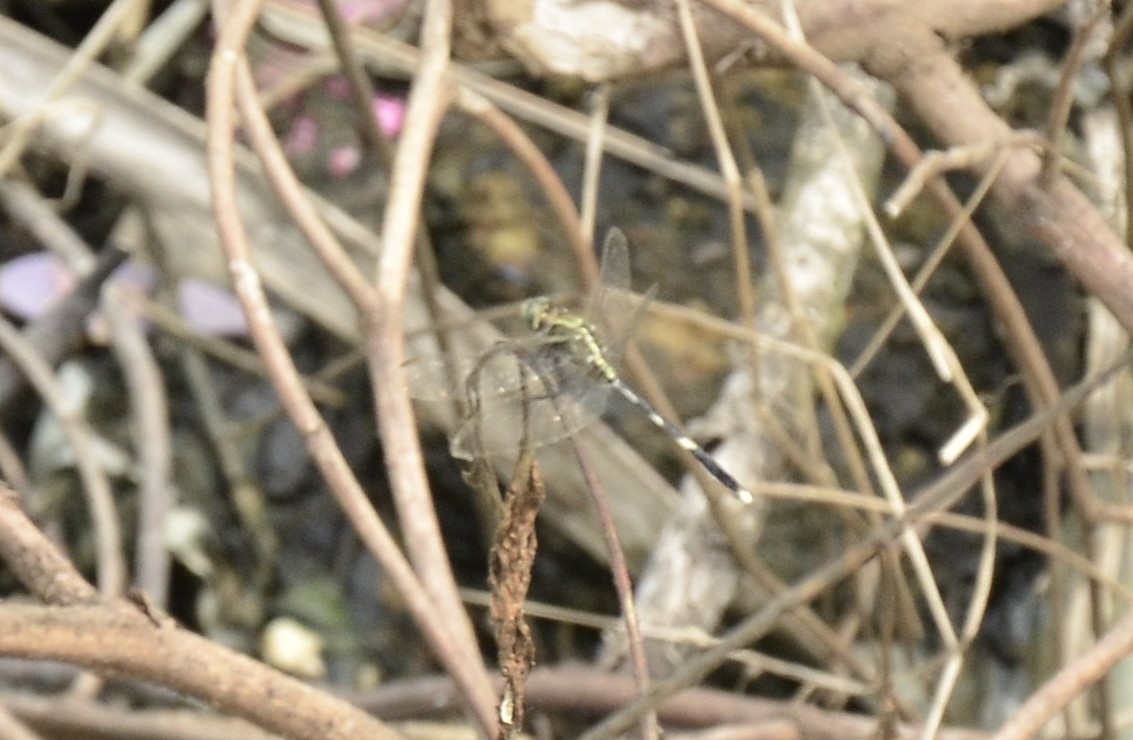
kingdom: Animalia
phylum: Arthropoda
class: Insecta
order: Odonata
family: Libellulidae
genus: Orthetrum
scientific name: Orthetrum sabina
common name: Slender skimmer
